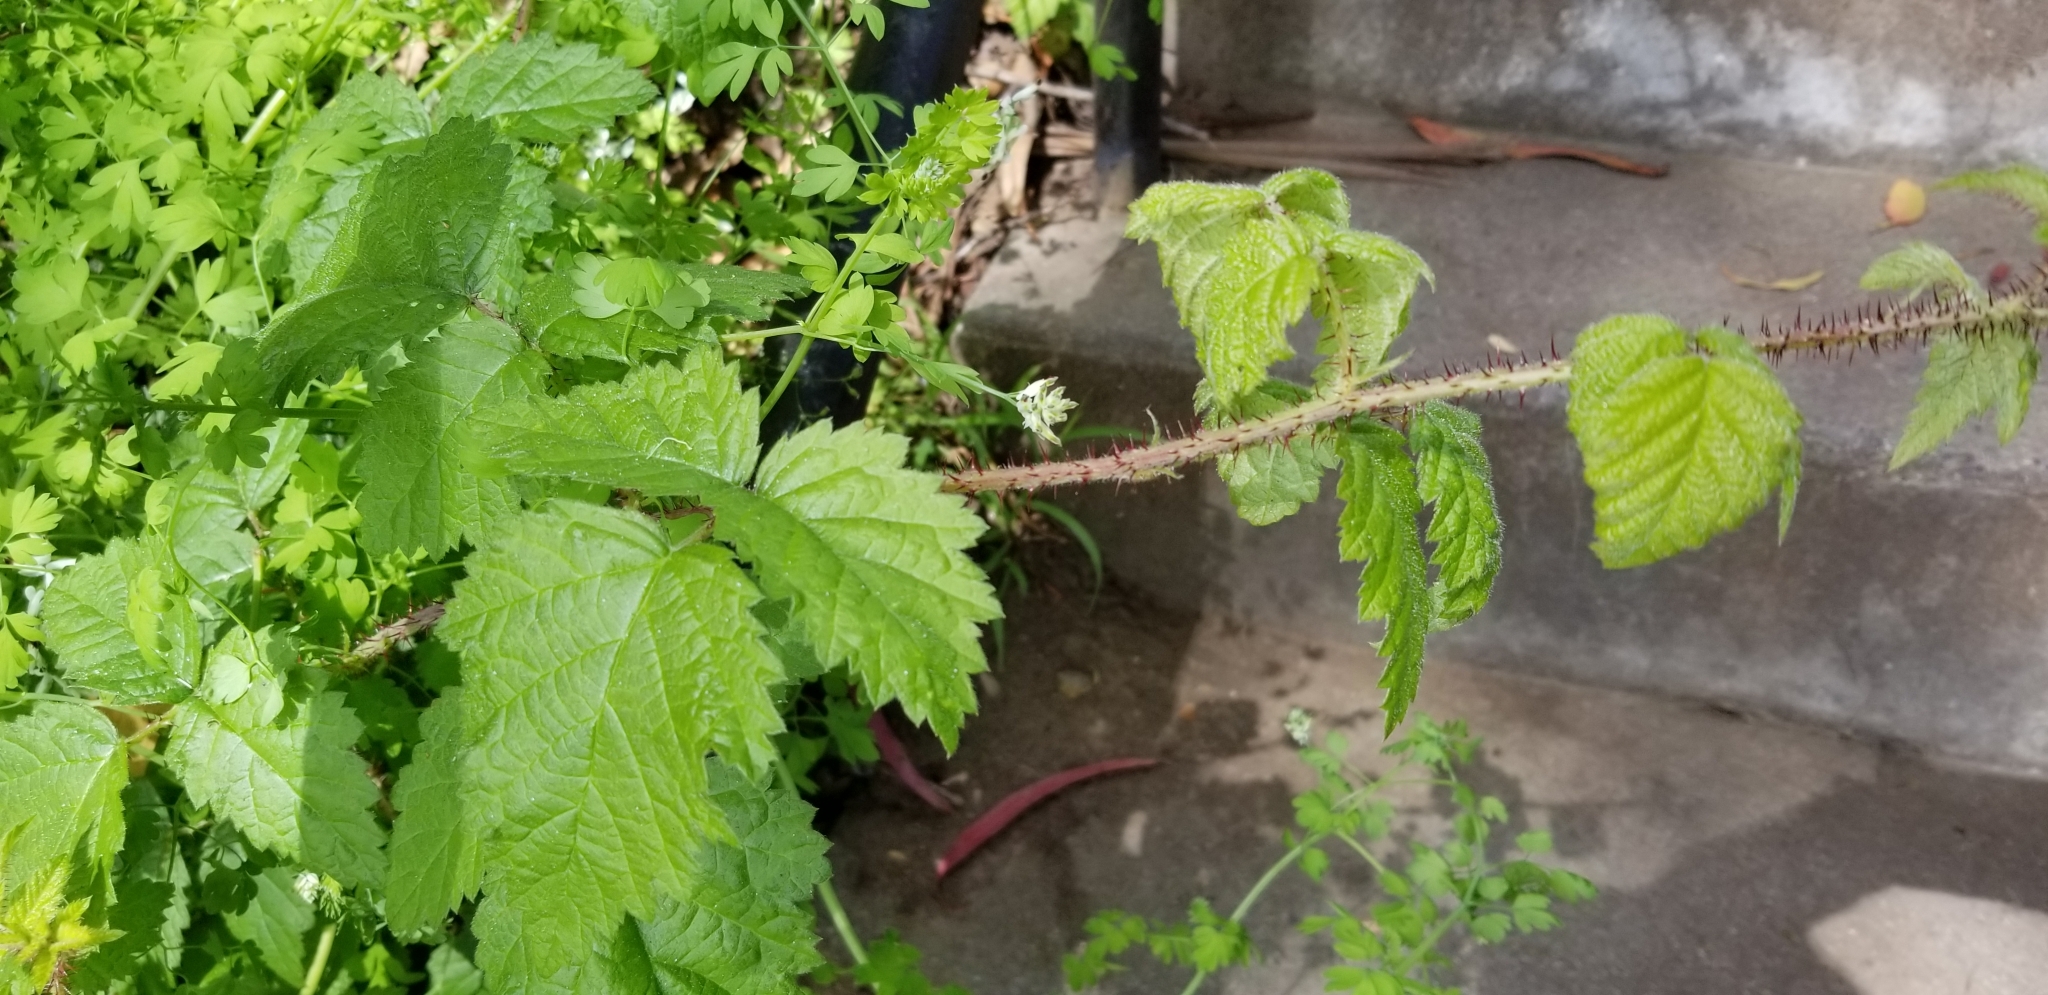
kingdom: Plantae
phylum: Tracheophyta
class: Magnoliopsida
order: Rosales
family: Rosaceae
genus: Rubus
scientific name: Rubus ursinus
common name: Pacific blackberry
